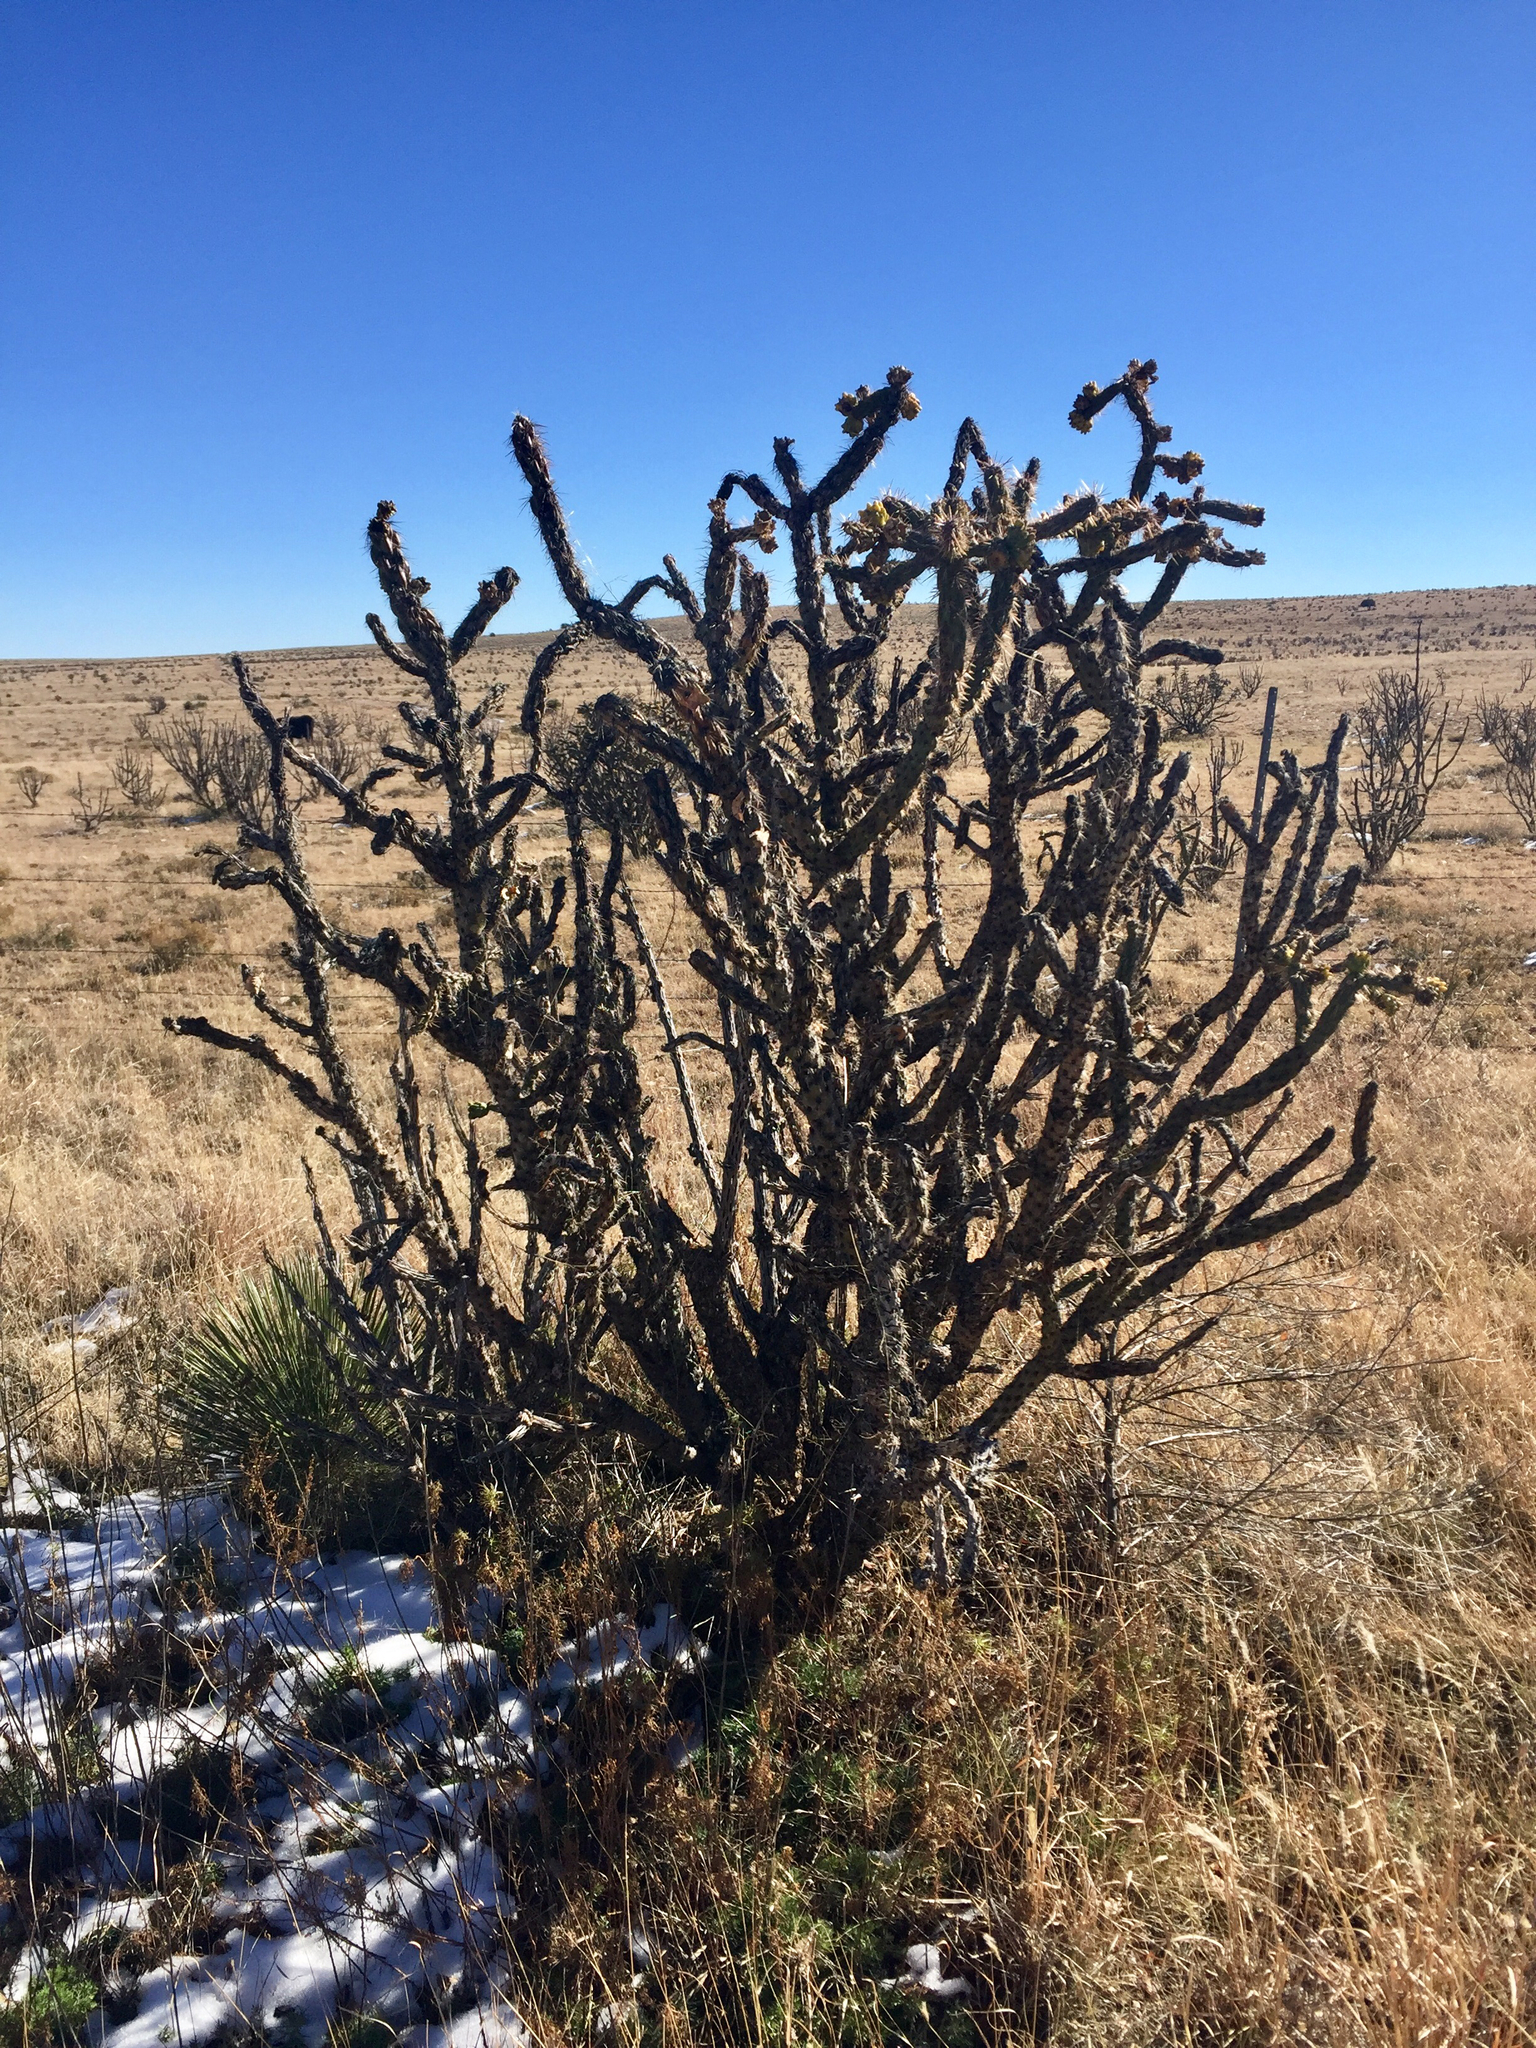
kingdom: Plantae
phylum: Tracheophyta
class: Magnoliopsida
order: Caryophyllales
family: Cactaceae
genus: Cylindropuntia
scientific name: Cylindropuntia imbricata
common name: Candelabrum cactus
